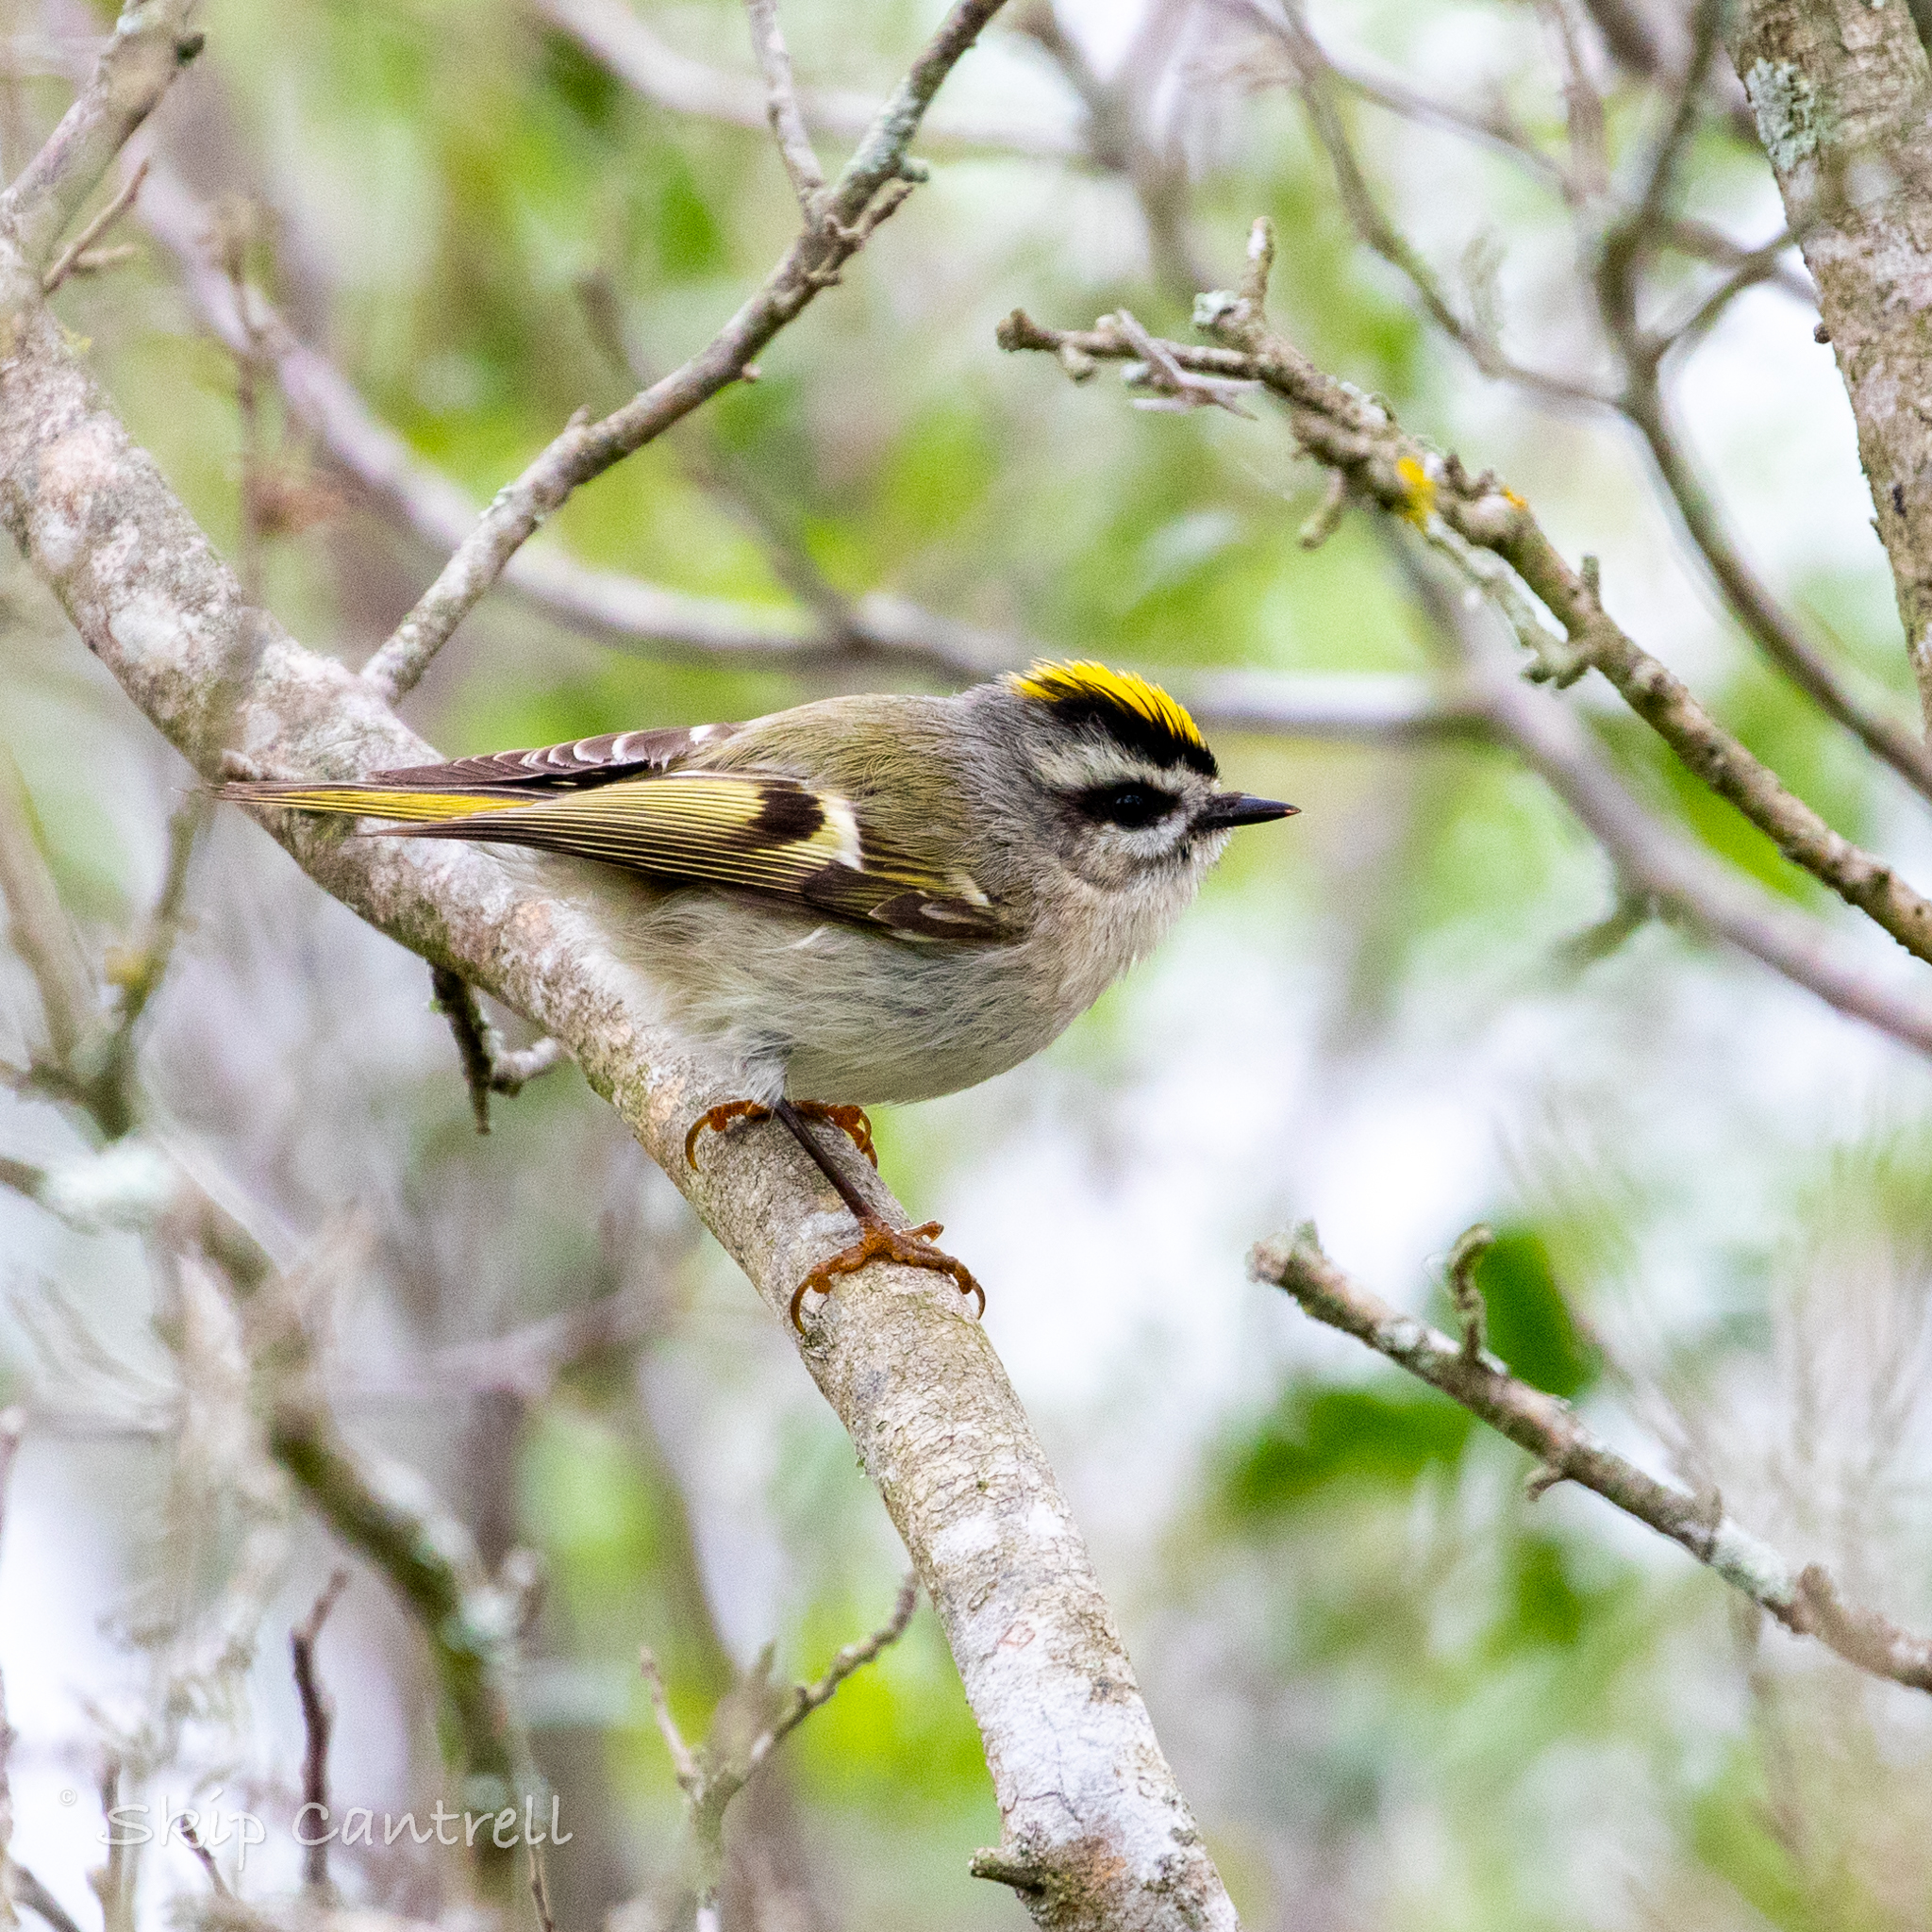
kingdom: Animalia
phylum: Chordata
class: Aves
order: Passeriformes
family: Regulidae
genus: Regulus
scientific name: Regulus satrapa
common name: Golden-crowned kinglet
